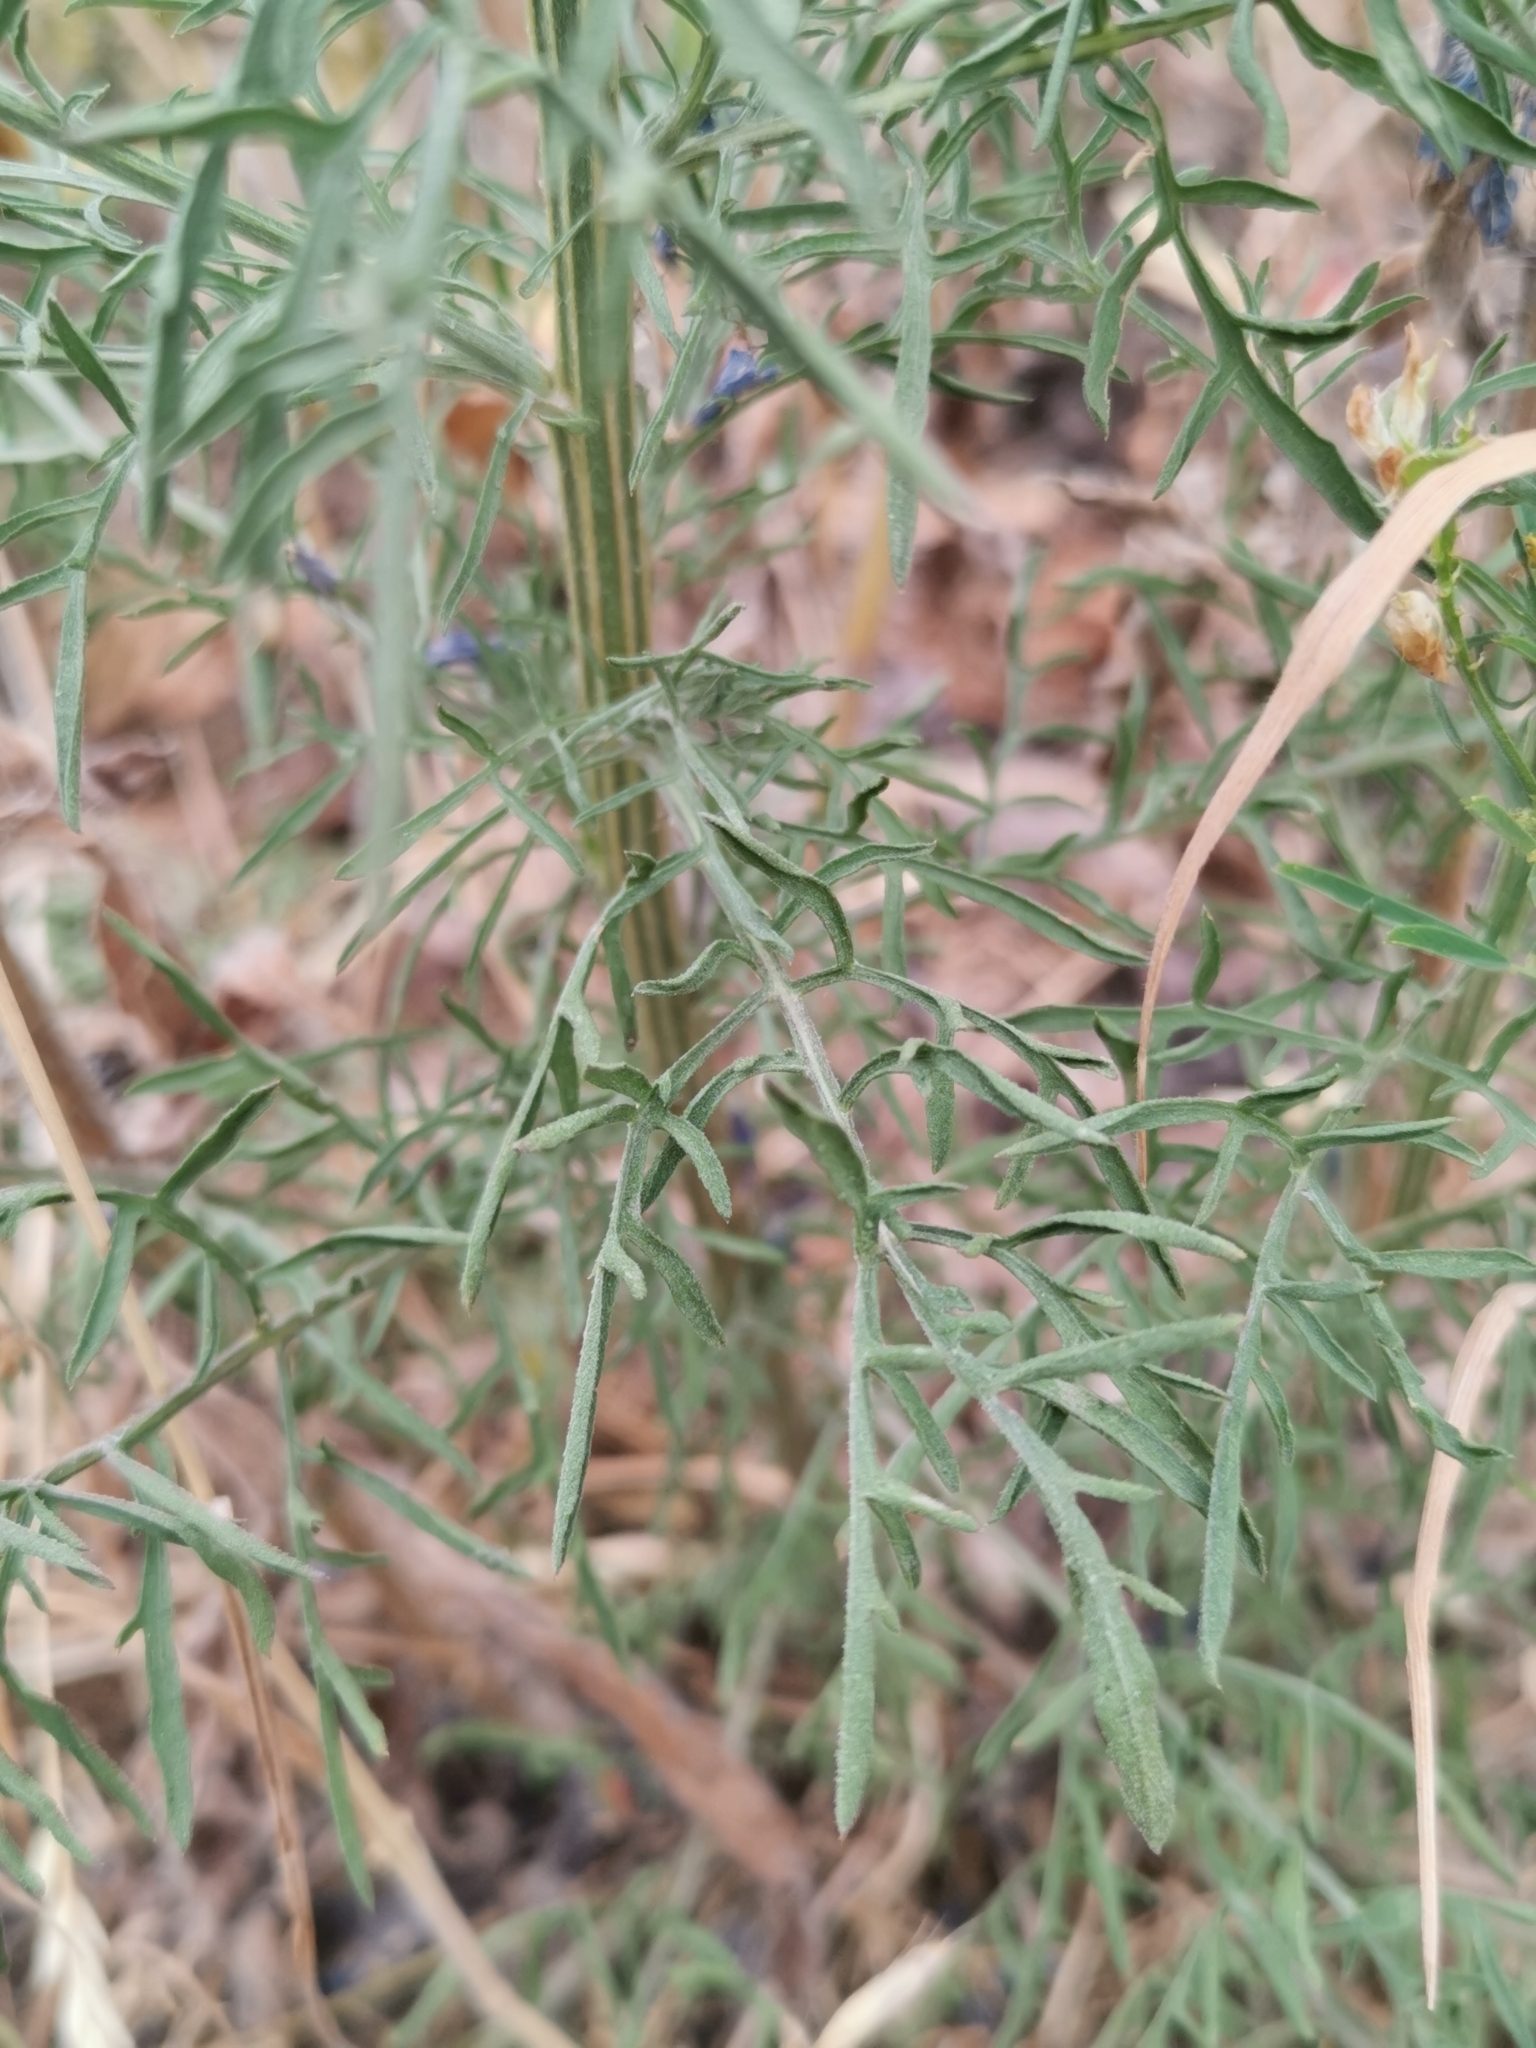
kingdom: Plantae
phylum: Tracheophyta
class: Magnoliopsida
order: Asterales
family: Asteraceae
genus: Centaurea
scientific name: Centaurea stoebe
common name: Spotted knapweed
